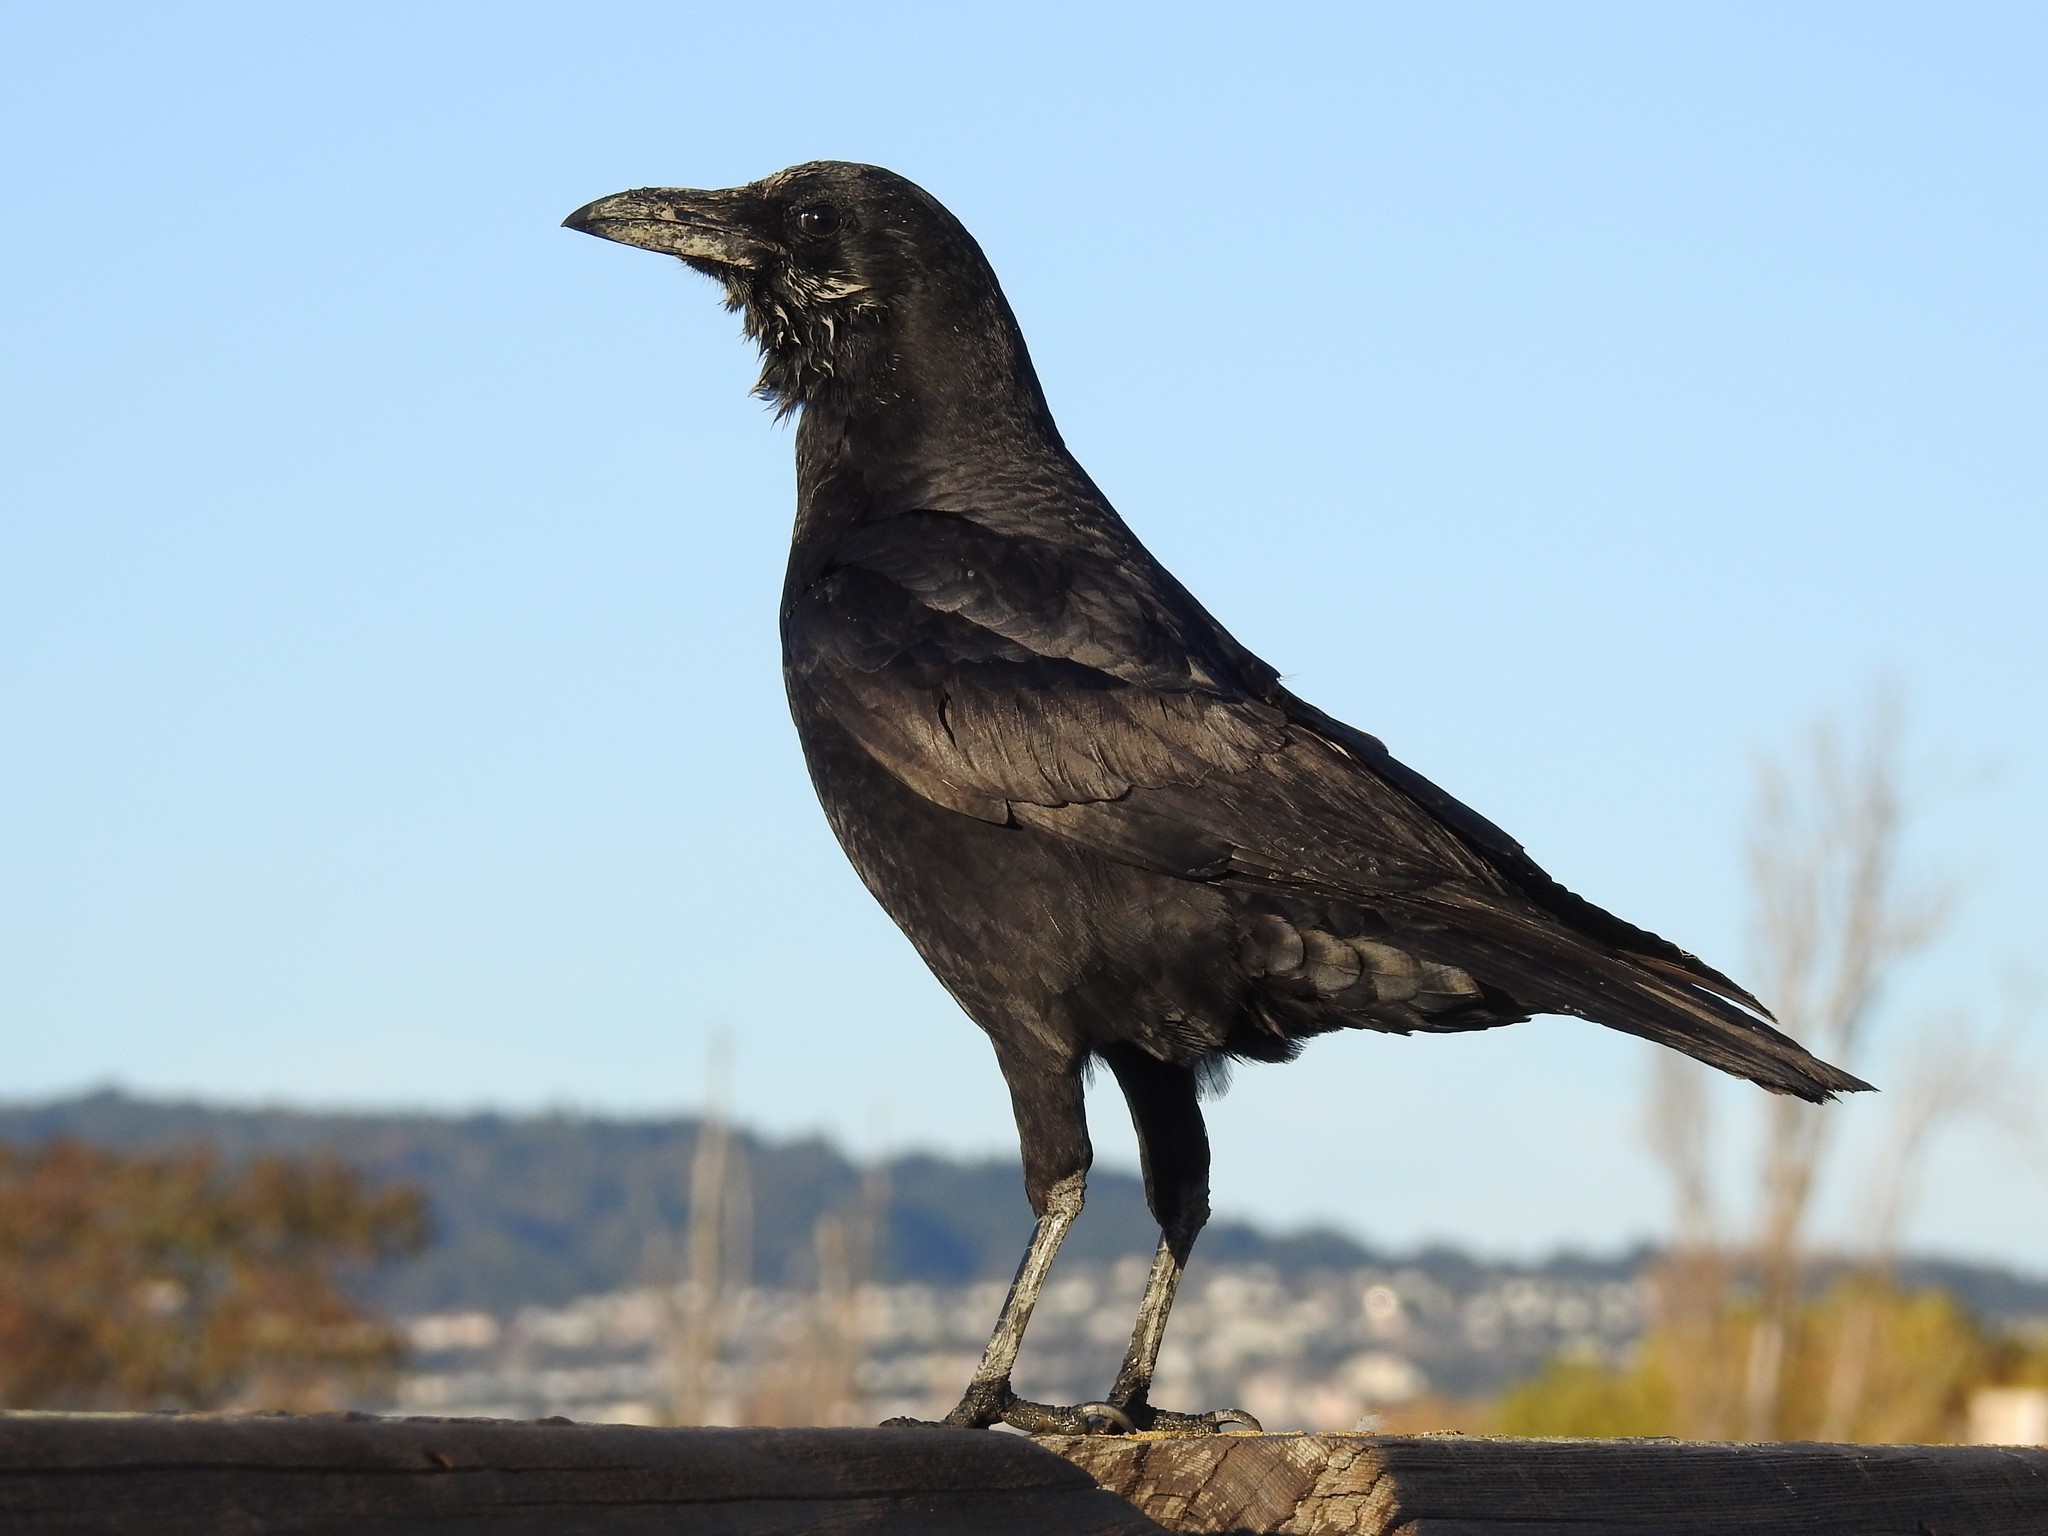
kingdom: Animalia
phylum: Chordata
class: Aves
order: Passeriformes
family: Corvidae
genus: Corvus
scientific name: Corvus corax
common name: Common raven
